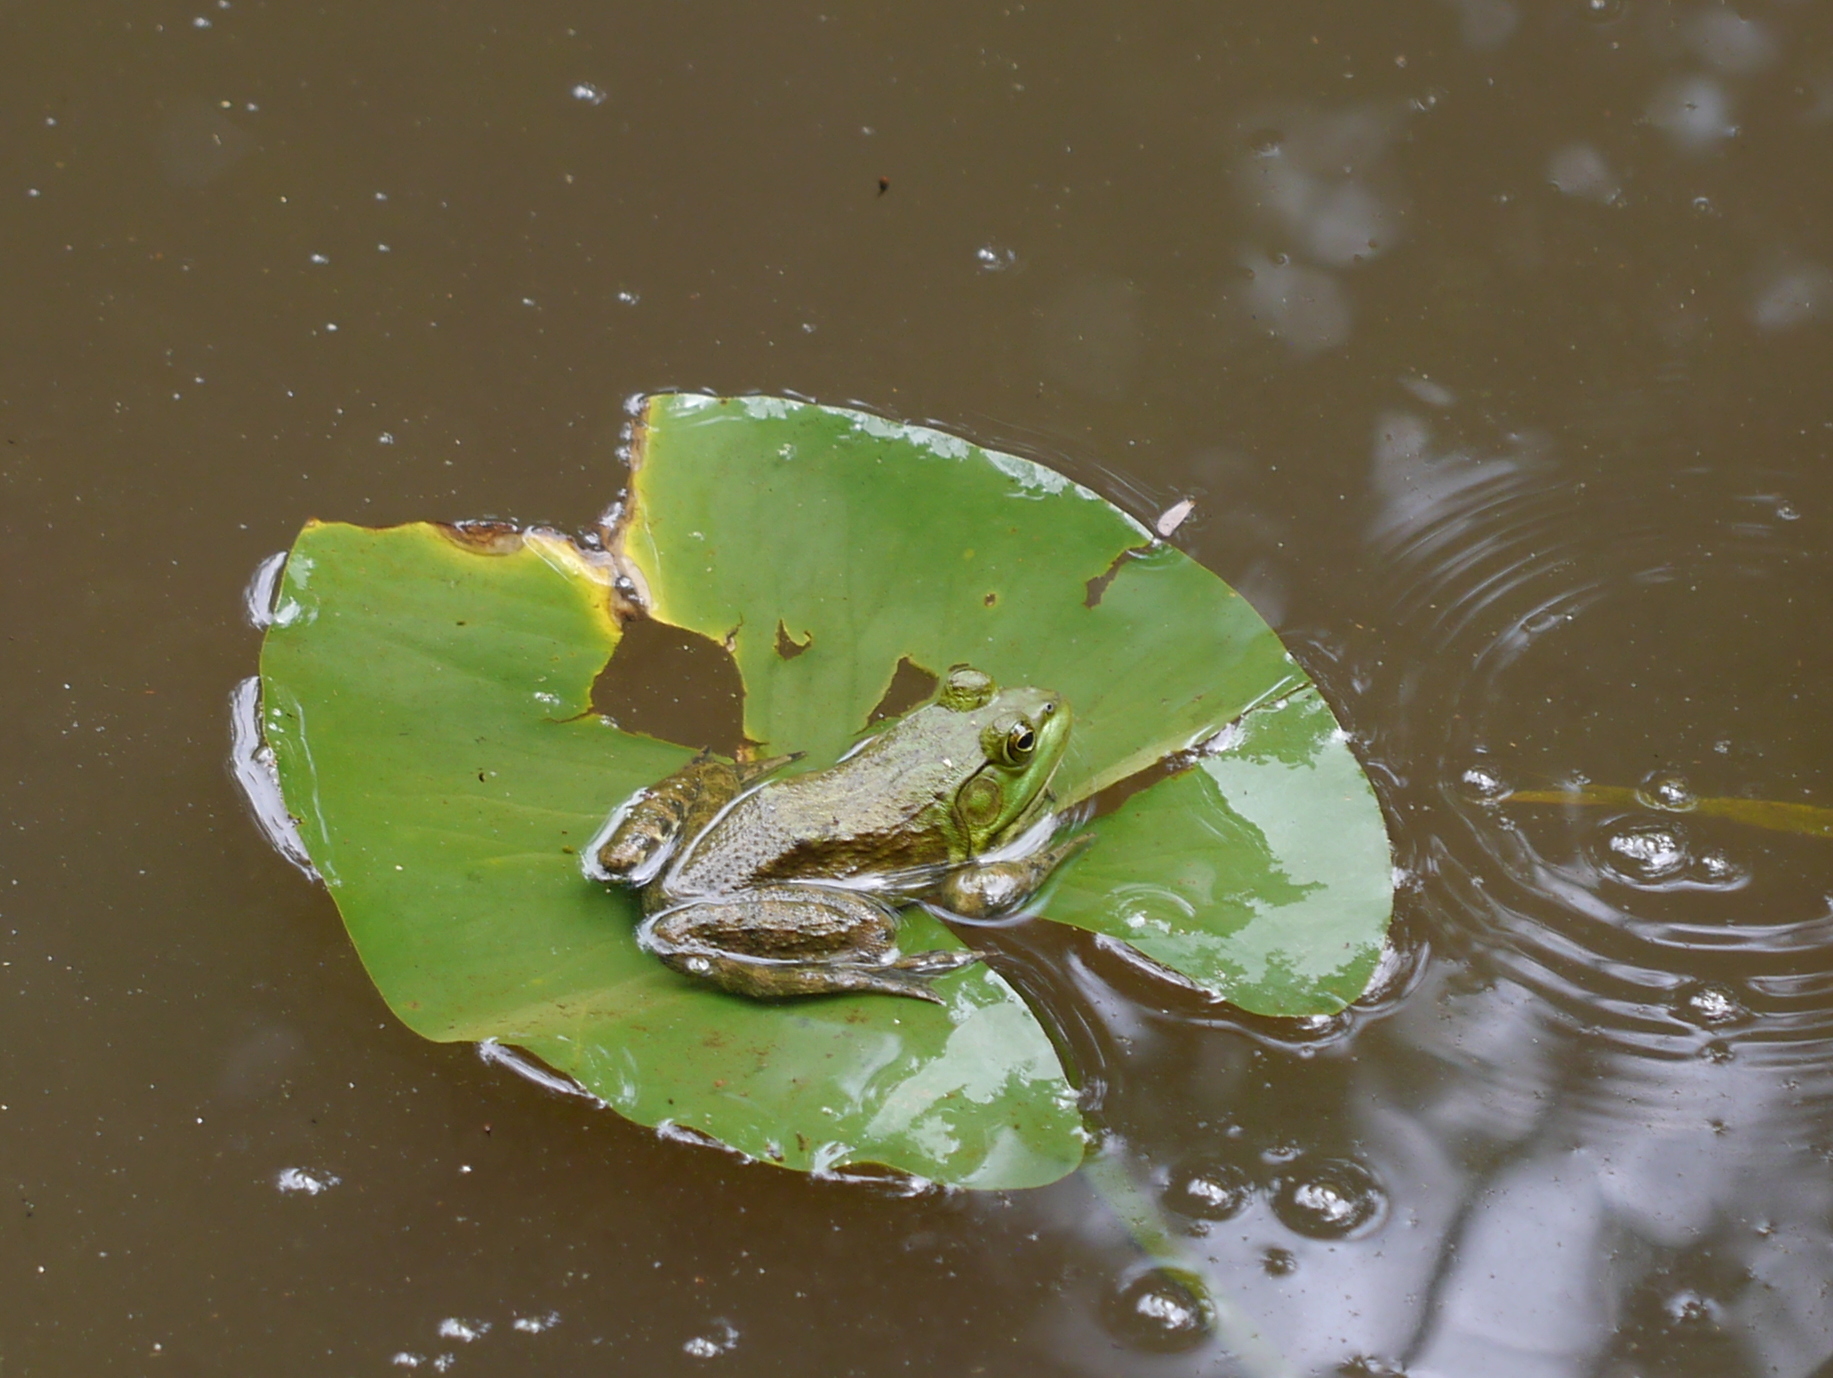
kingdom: Animalia
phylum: Chordata
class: Amphibia
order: Anura
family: Ranidae
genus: Lithobates
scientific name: Lithobates catesbeianus
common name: American bullfrog
